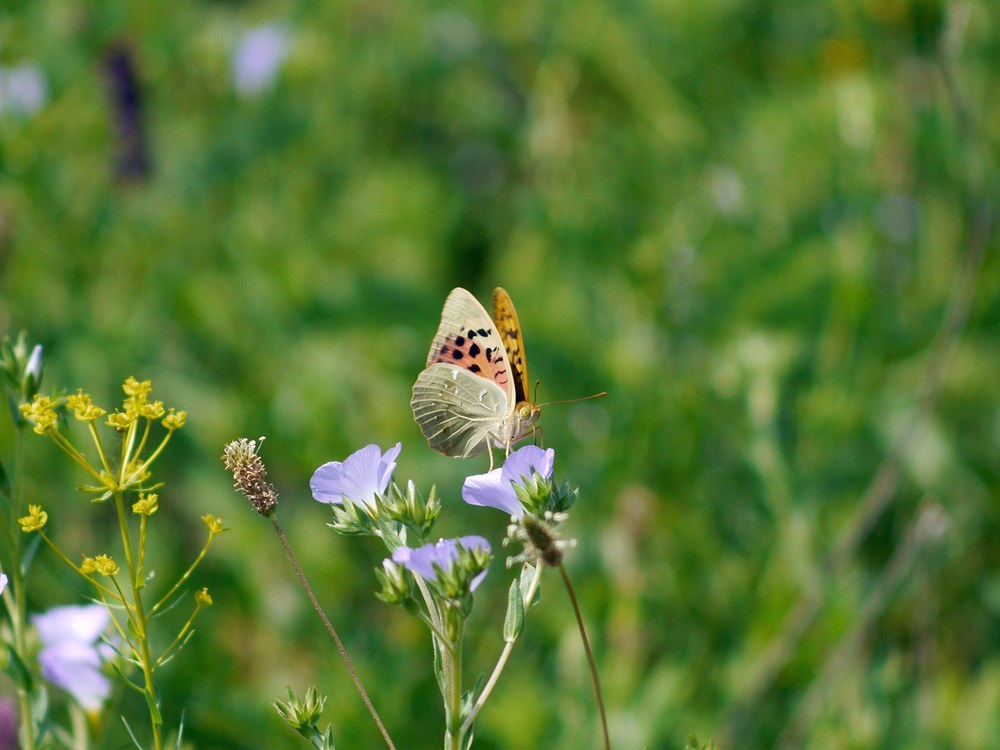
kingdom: Animalia
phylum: Arthropoda
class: Insecta
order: Lepidoptera
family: Nymphalidae
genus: Damora
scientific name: Damora pandora
